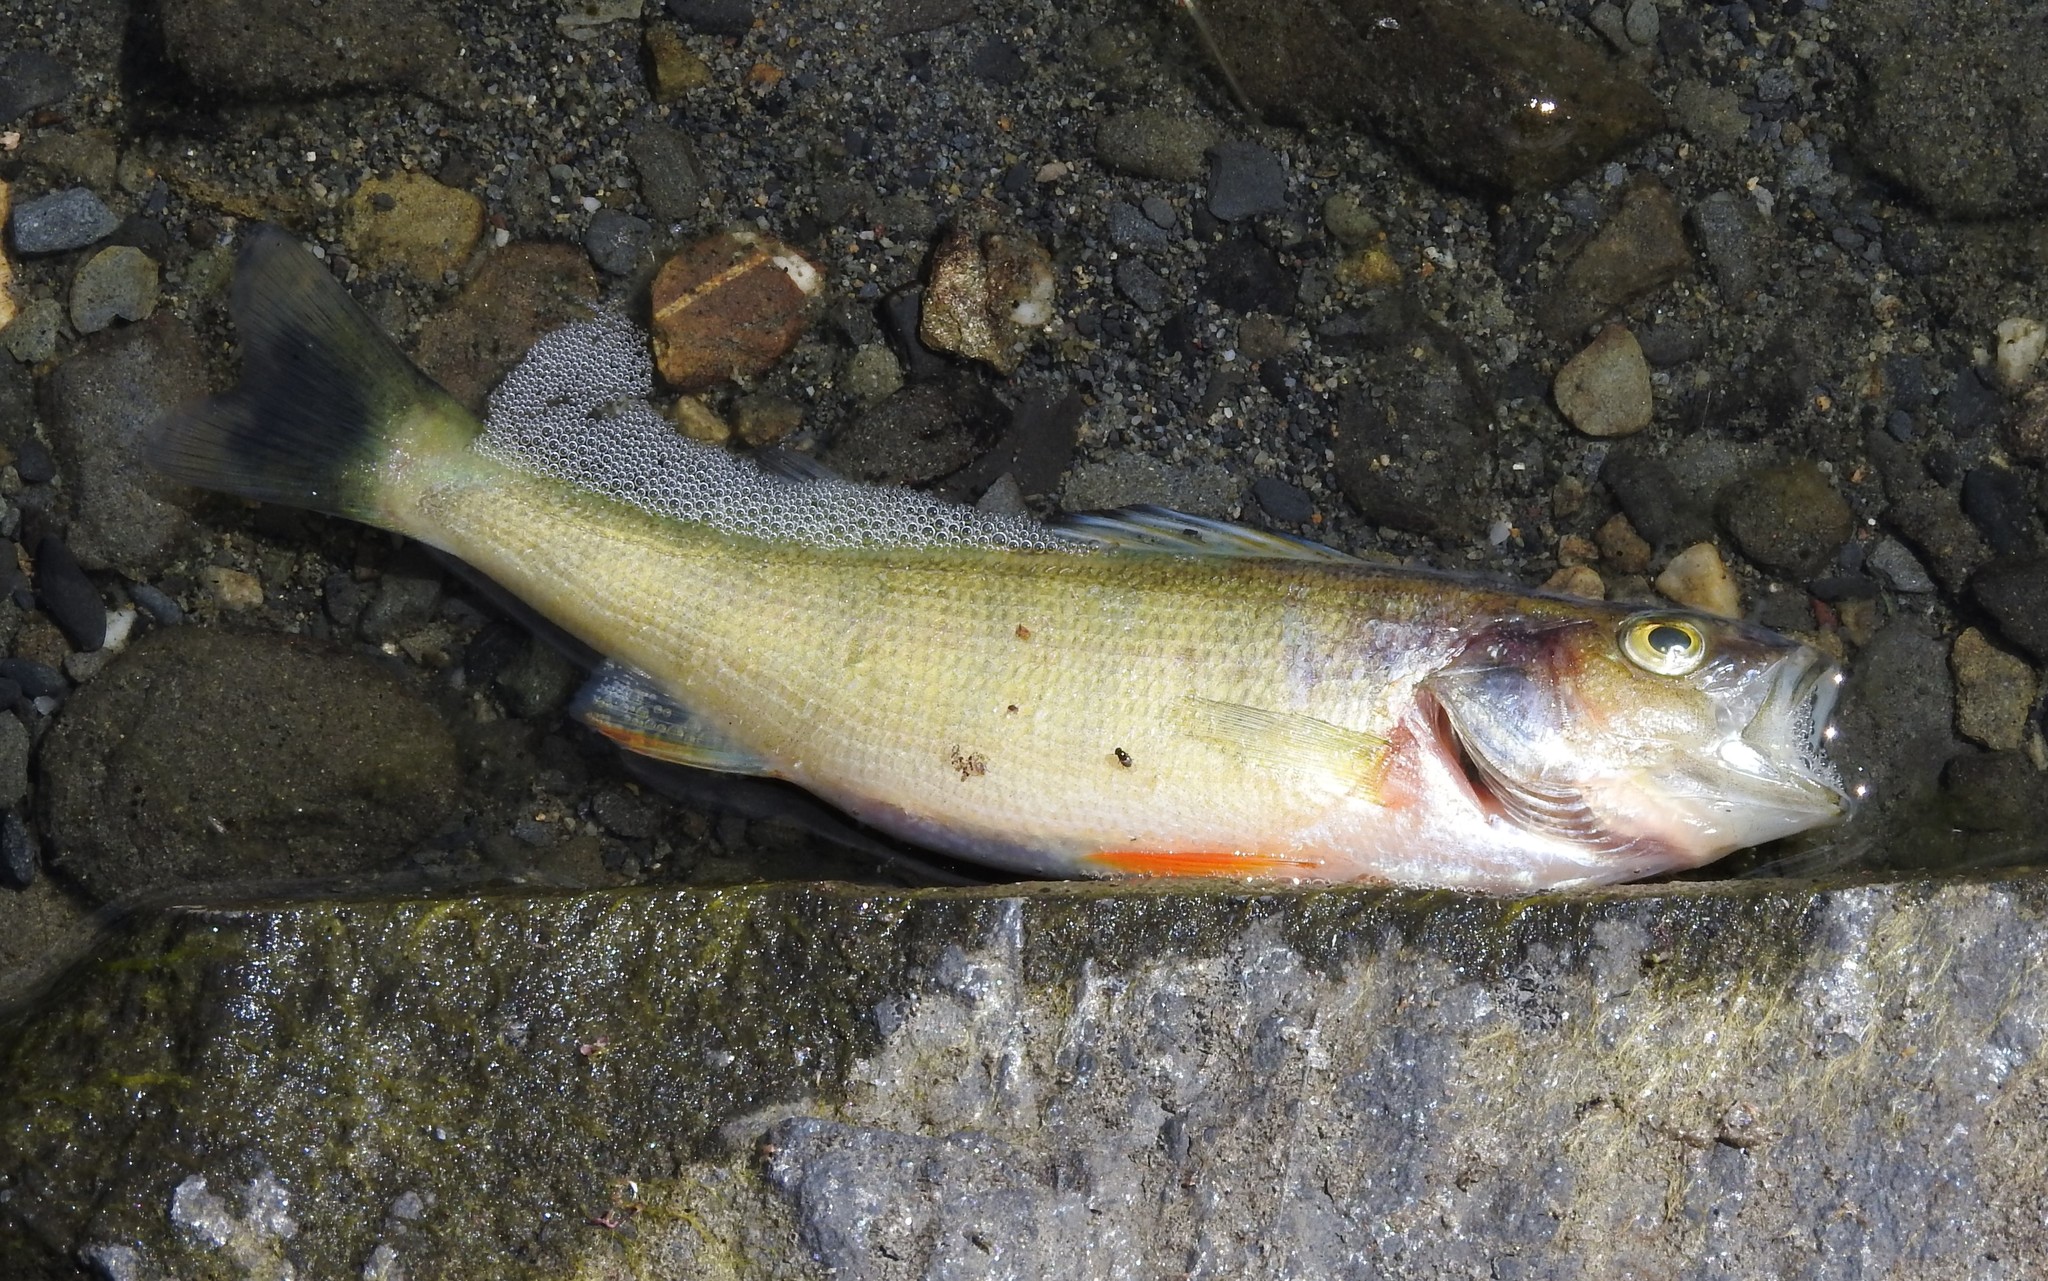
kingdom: Animalia
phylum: Chordata
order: Perciformes
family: Percidae
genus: Perca
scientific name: Perca flavescens
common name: Yellow perch
